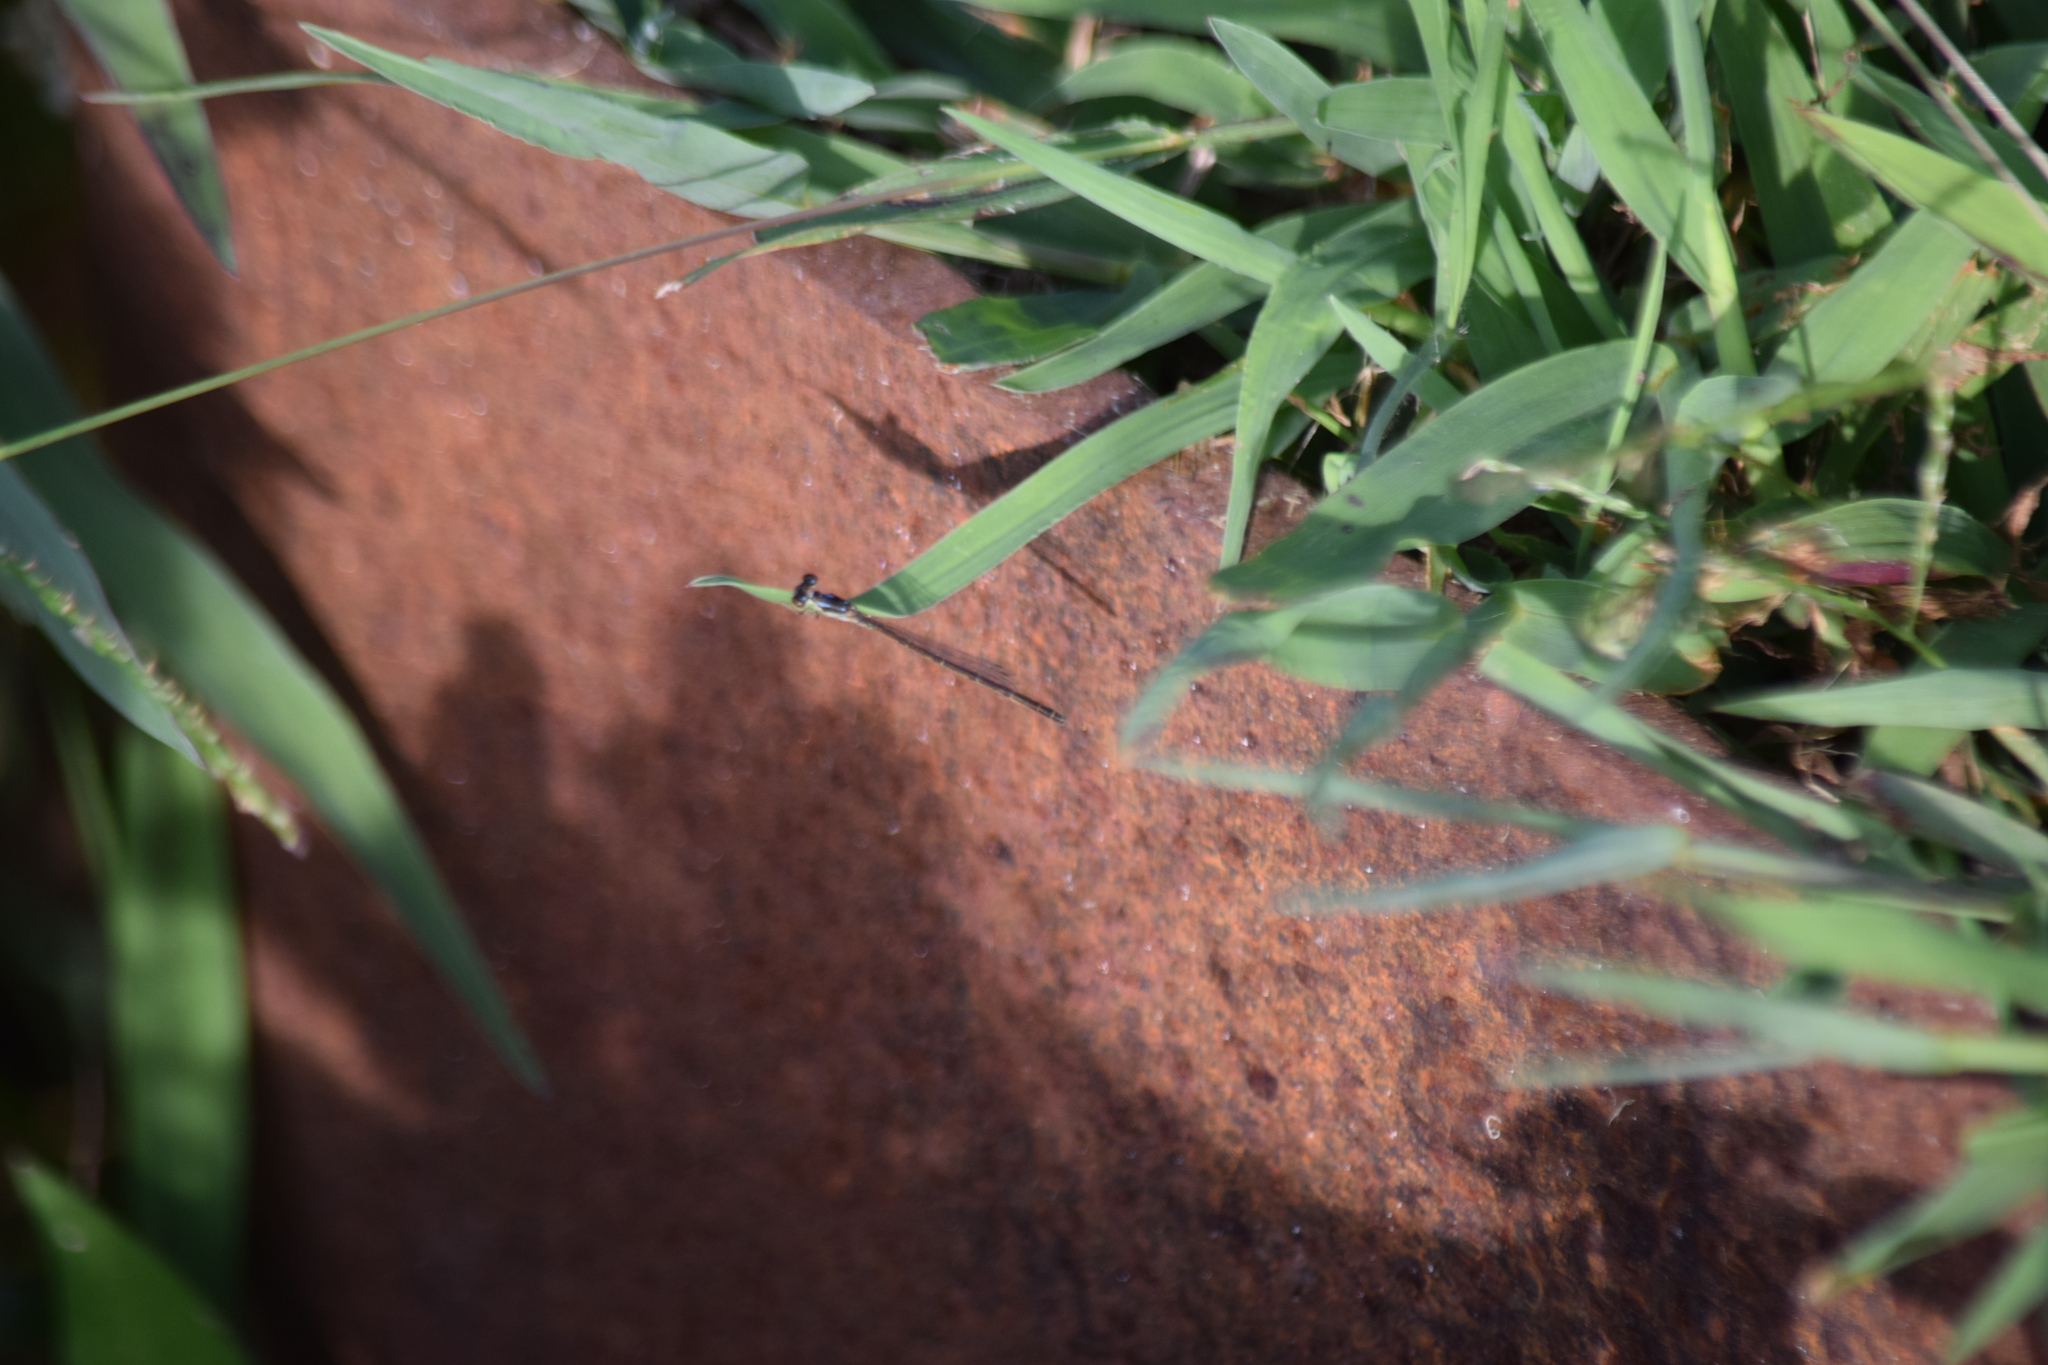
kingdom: Animalia
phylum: Arthropoda
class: Insecta
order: Odonata
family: Coenagrionidae
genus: Ischnura
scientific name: Ischnura posita
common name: Fragile forktail
